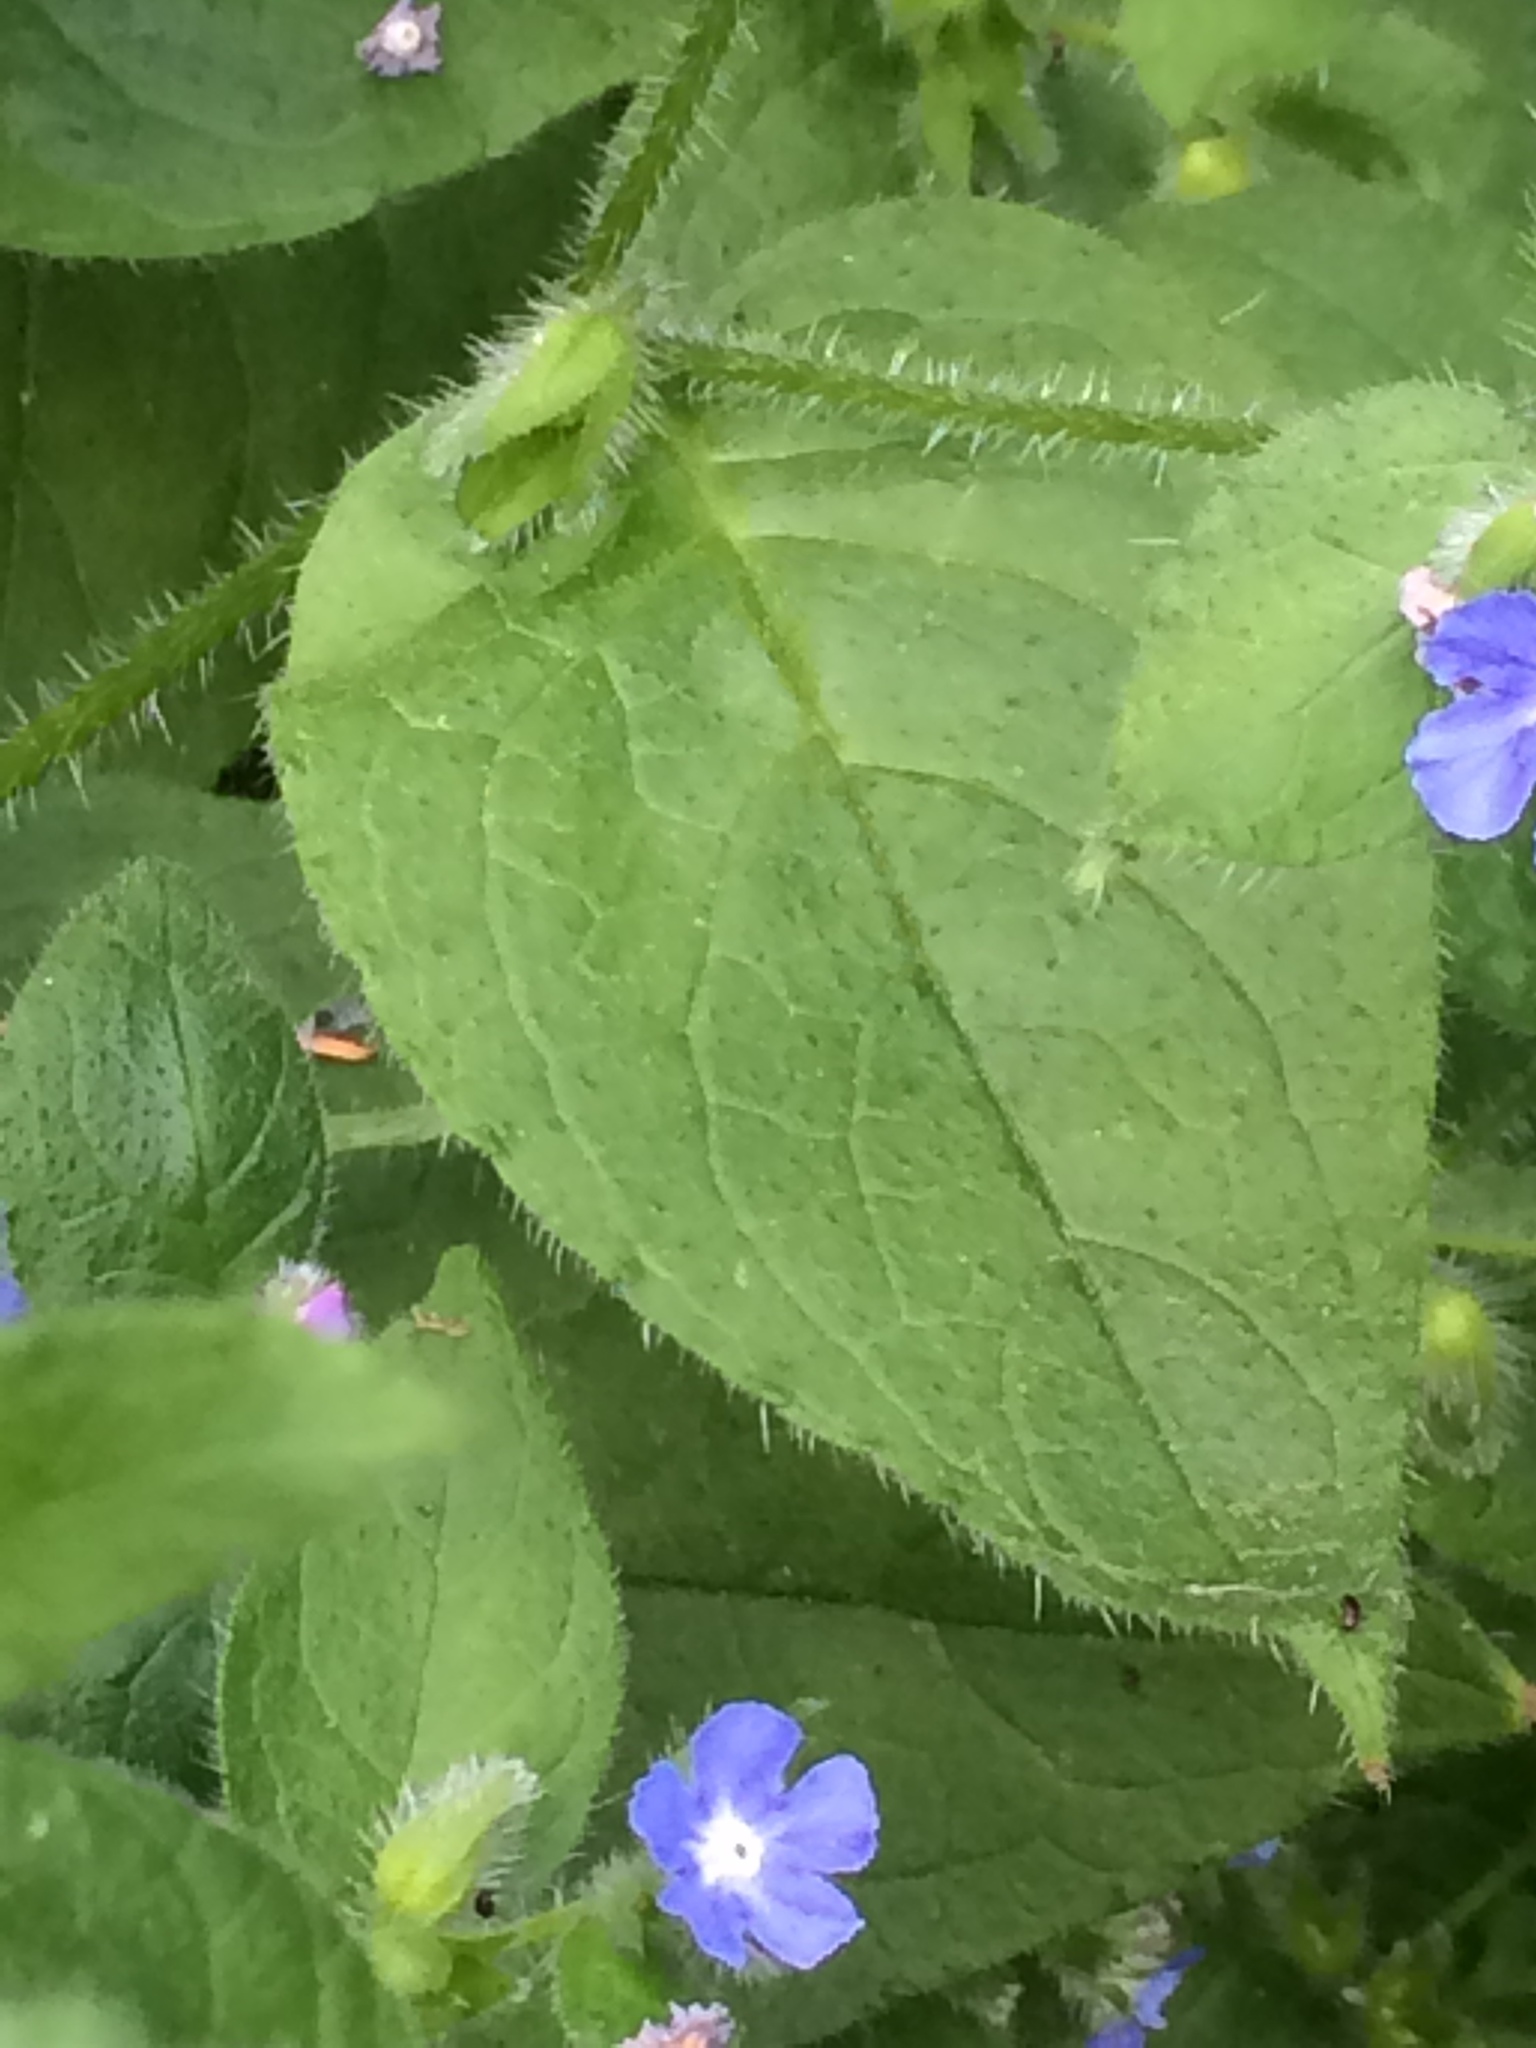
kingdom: Plantae
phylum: Tracheophyta
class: Magnoliopsida
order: Boraginales
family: Boraginaceae
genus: Pentaglottis
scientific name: Pentaglottis sempervirens
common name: Green alkanet
